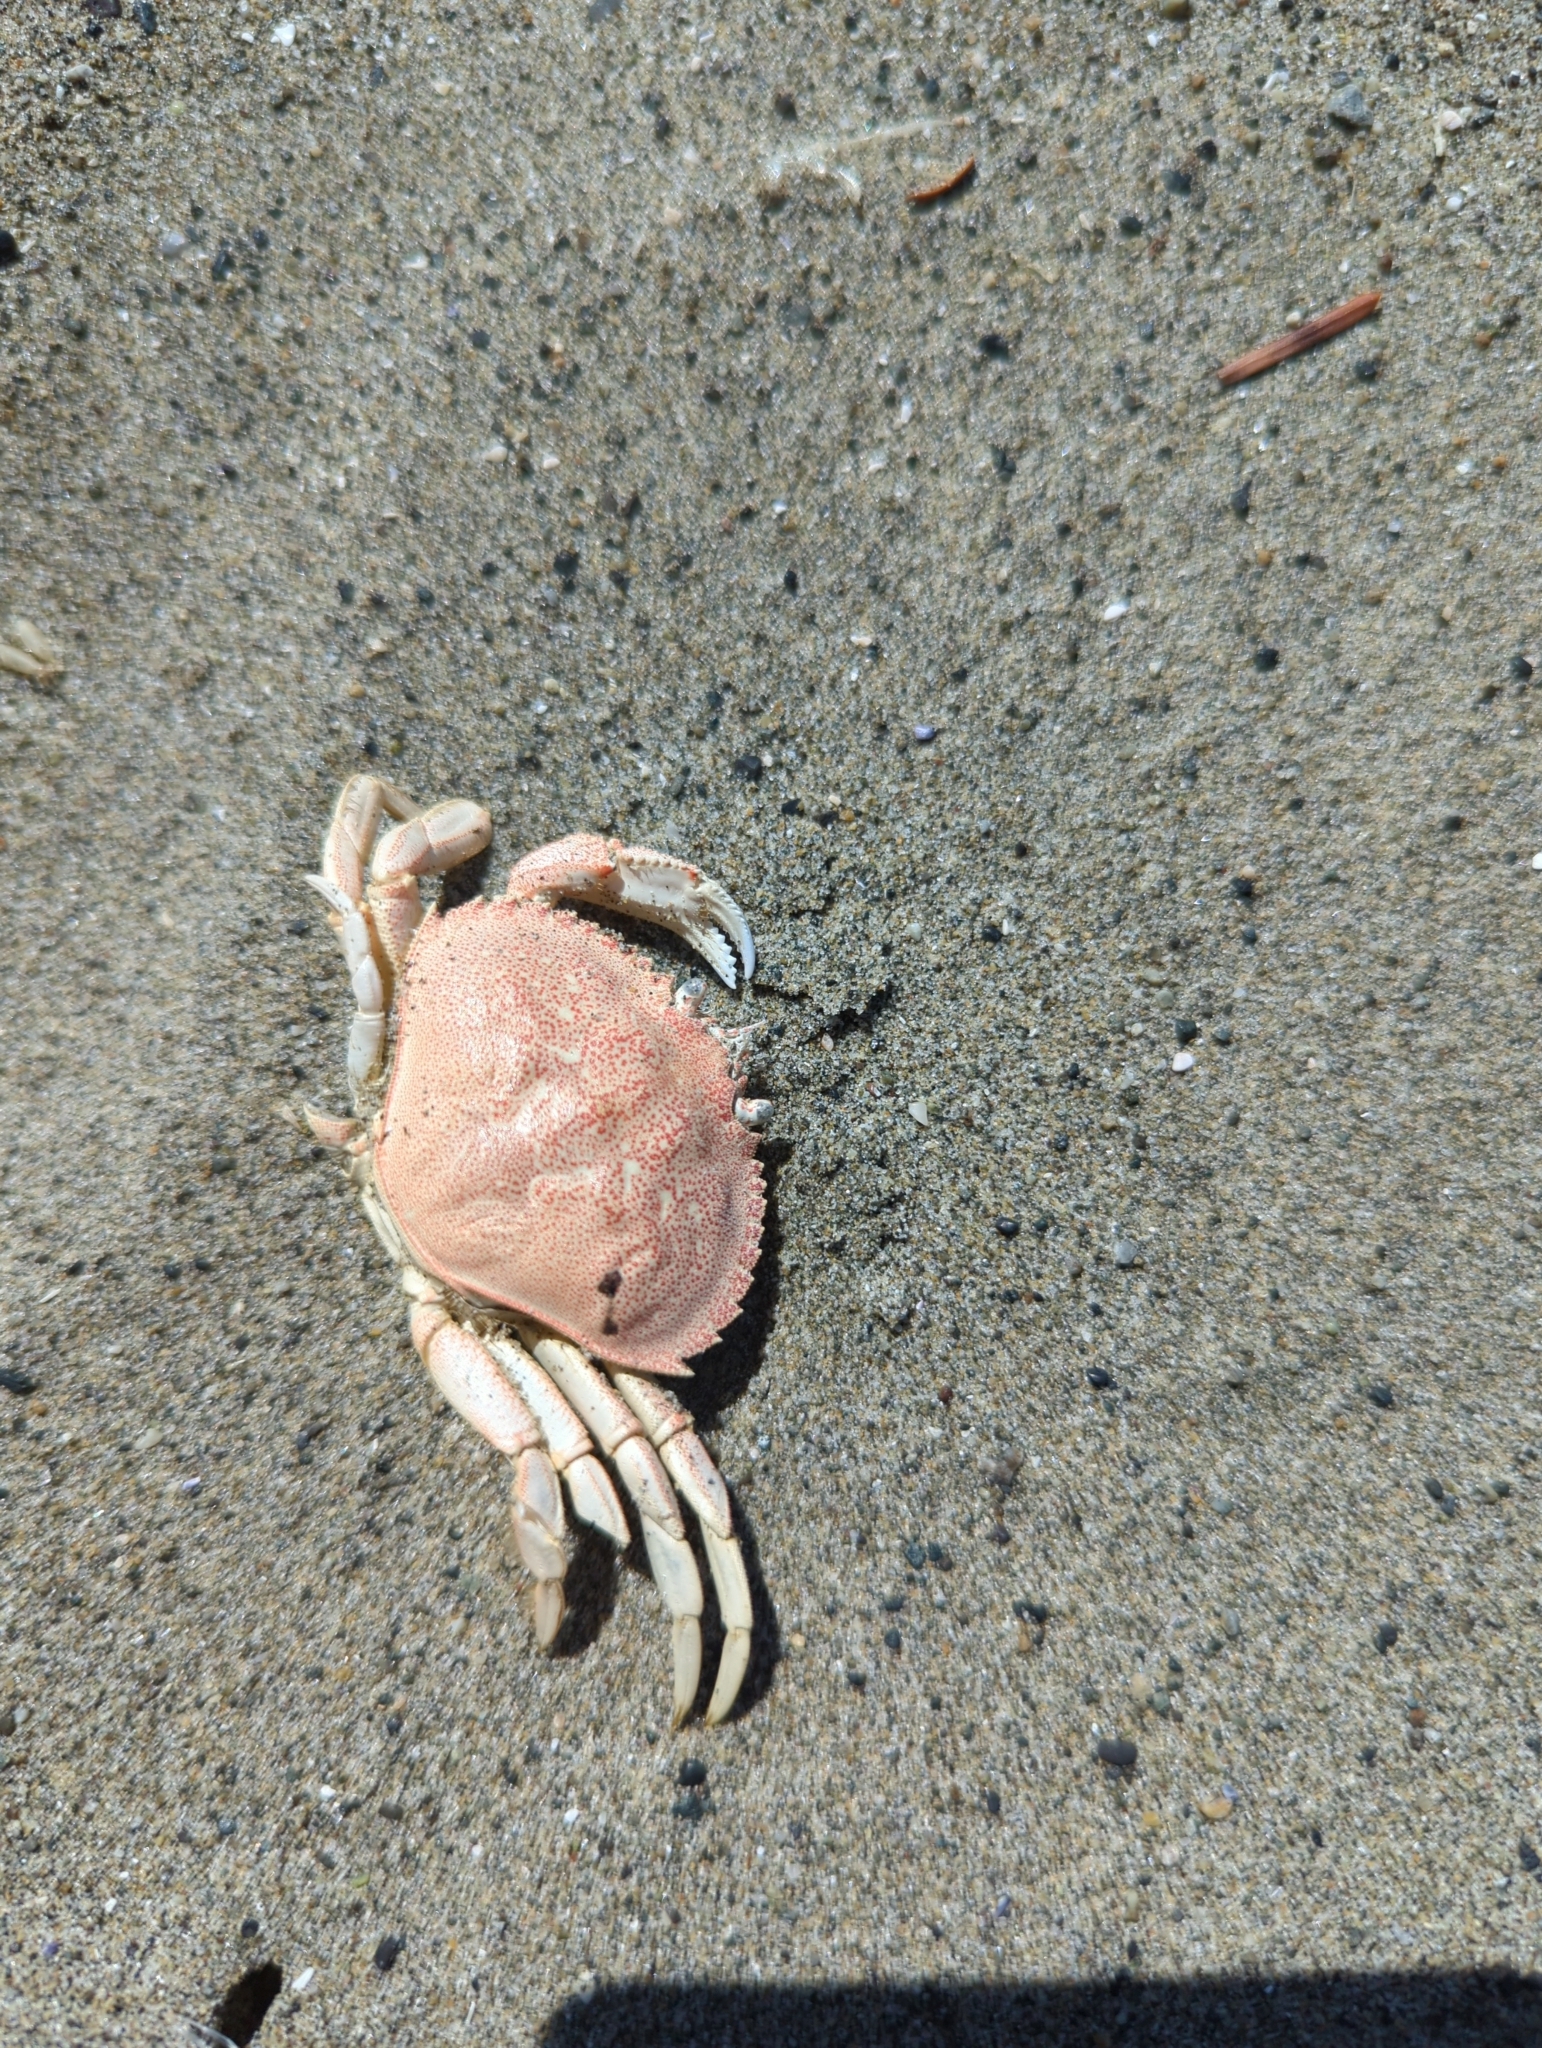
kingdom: Animalia
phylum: Arthropoda
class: Malacostraca
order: Decapoda
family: Cancridae
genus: Metacarcinus
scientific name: Metacarcinus magister
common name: Californian crab
